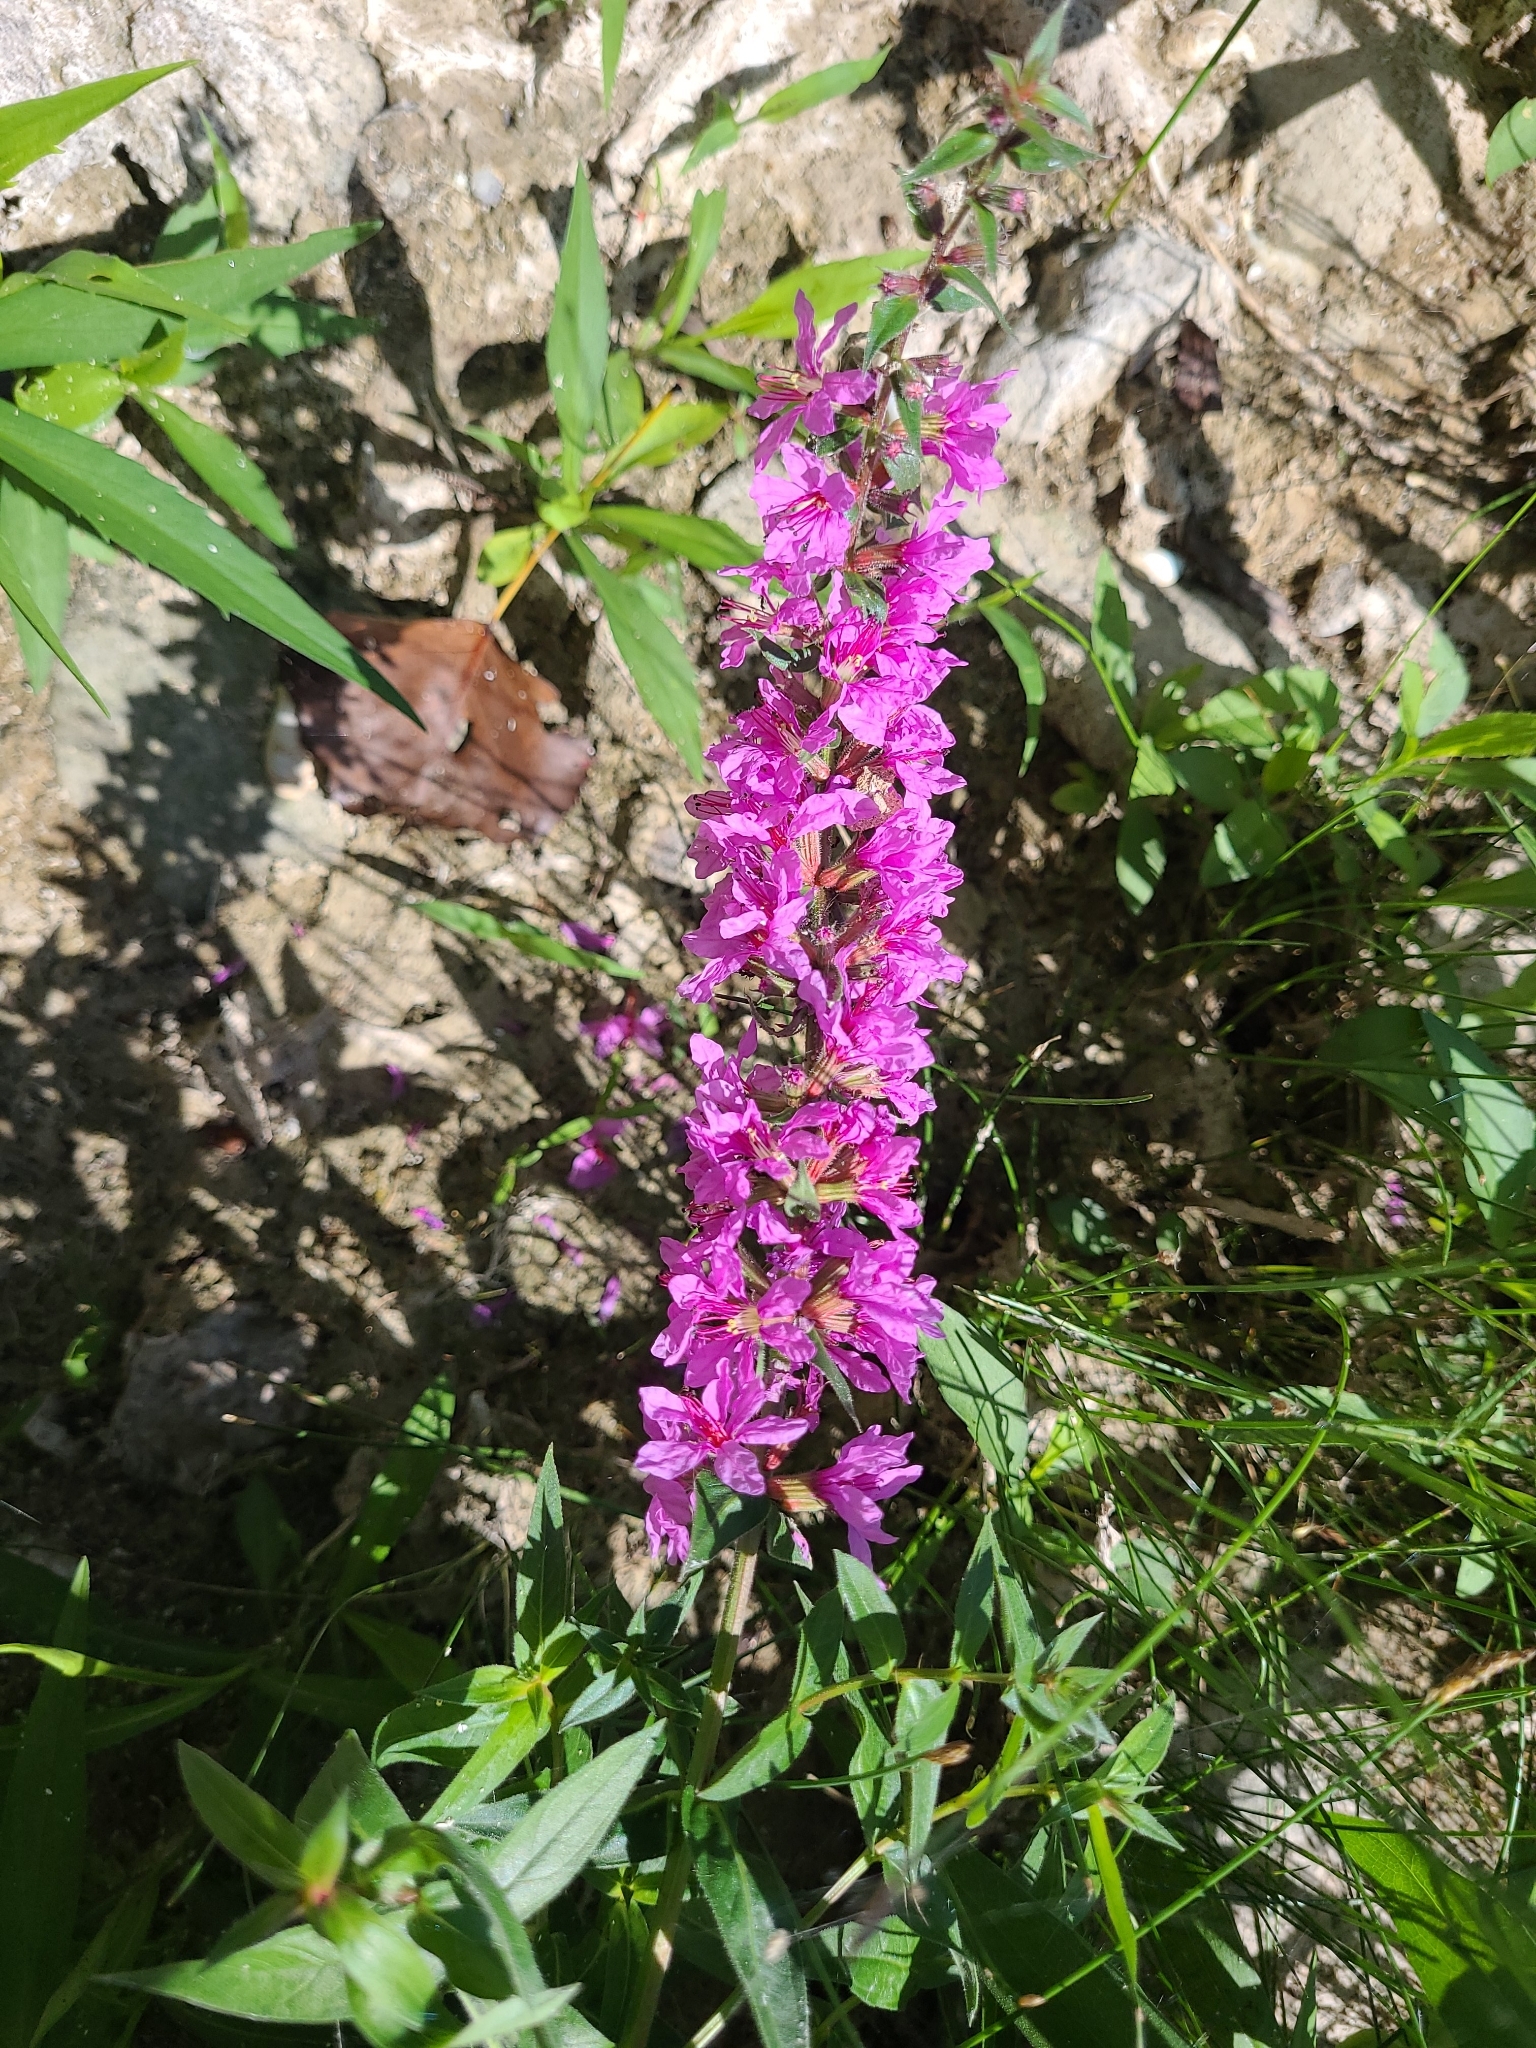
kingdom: Plantae
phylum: Tracheophyta
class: Magnoliopsida
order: Myrtales
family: Lythraceae
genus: Lythrum
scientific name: Lythrum salicaria
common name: Purple loosestrife
